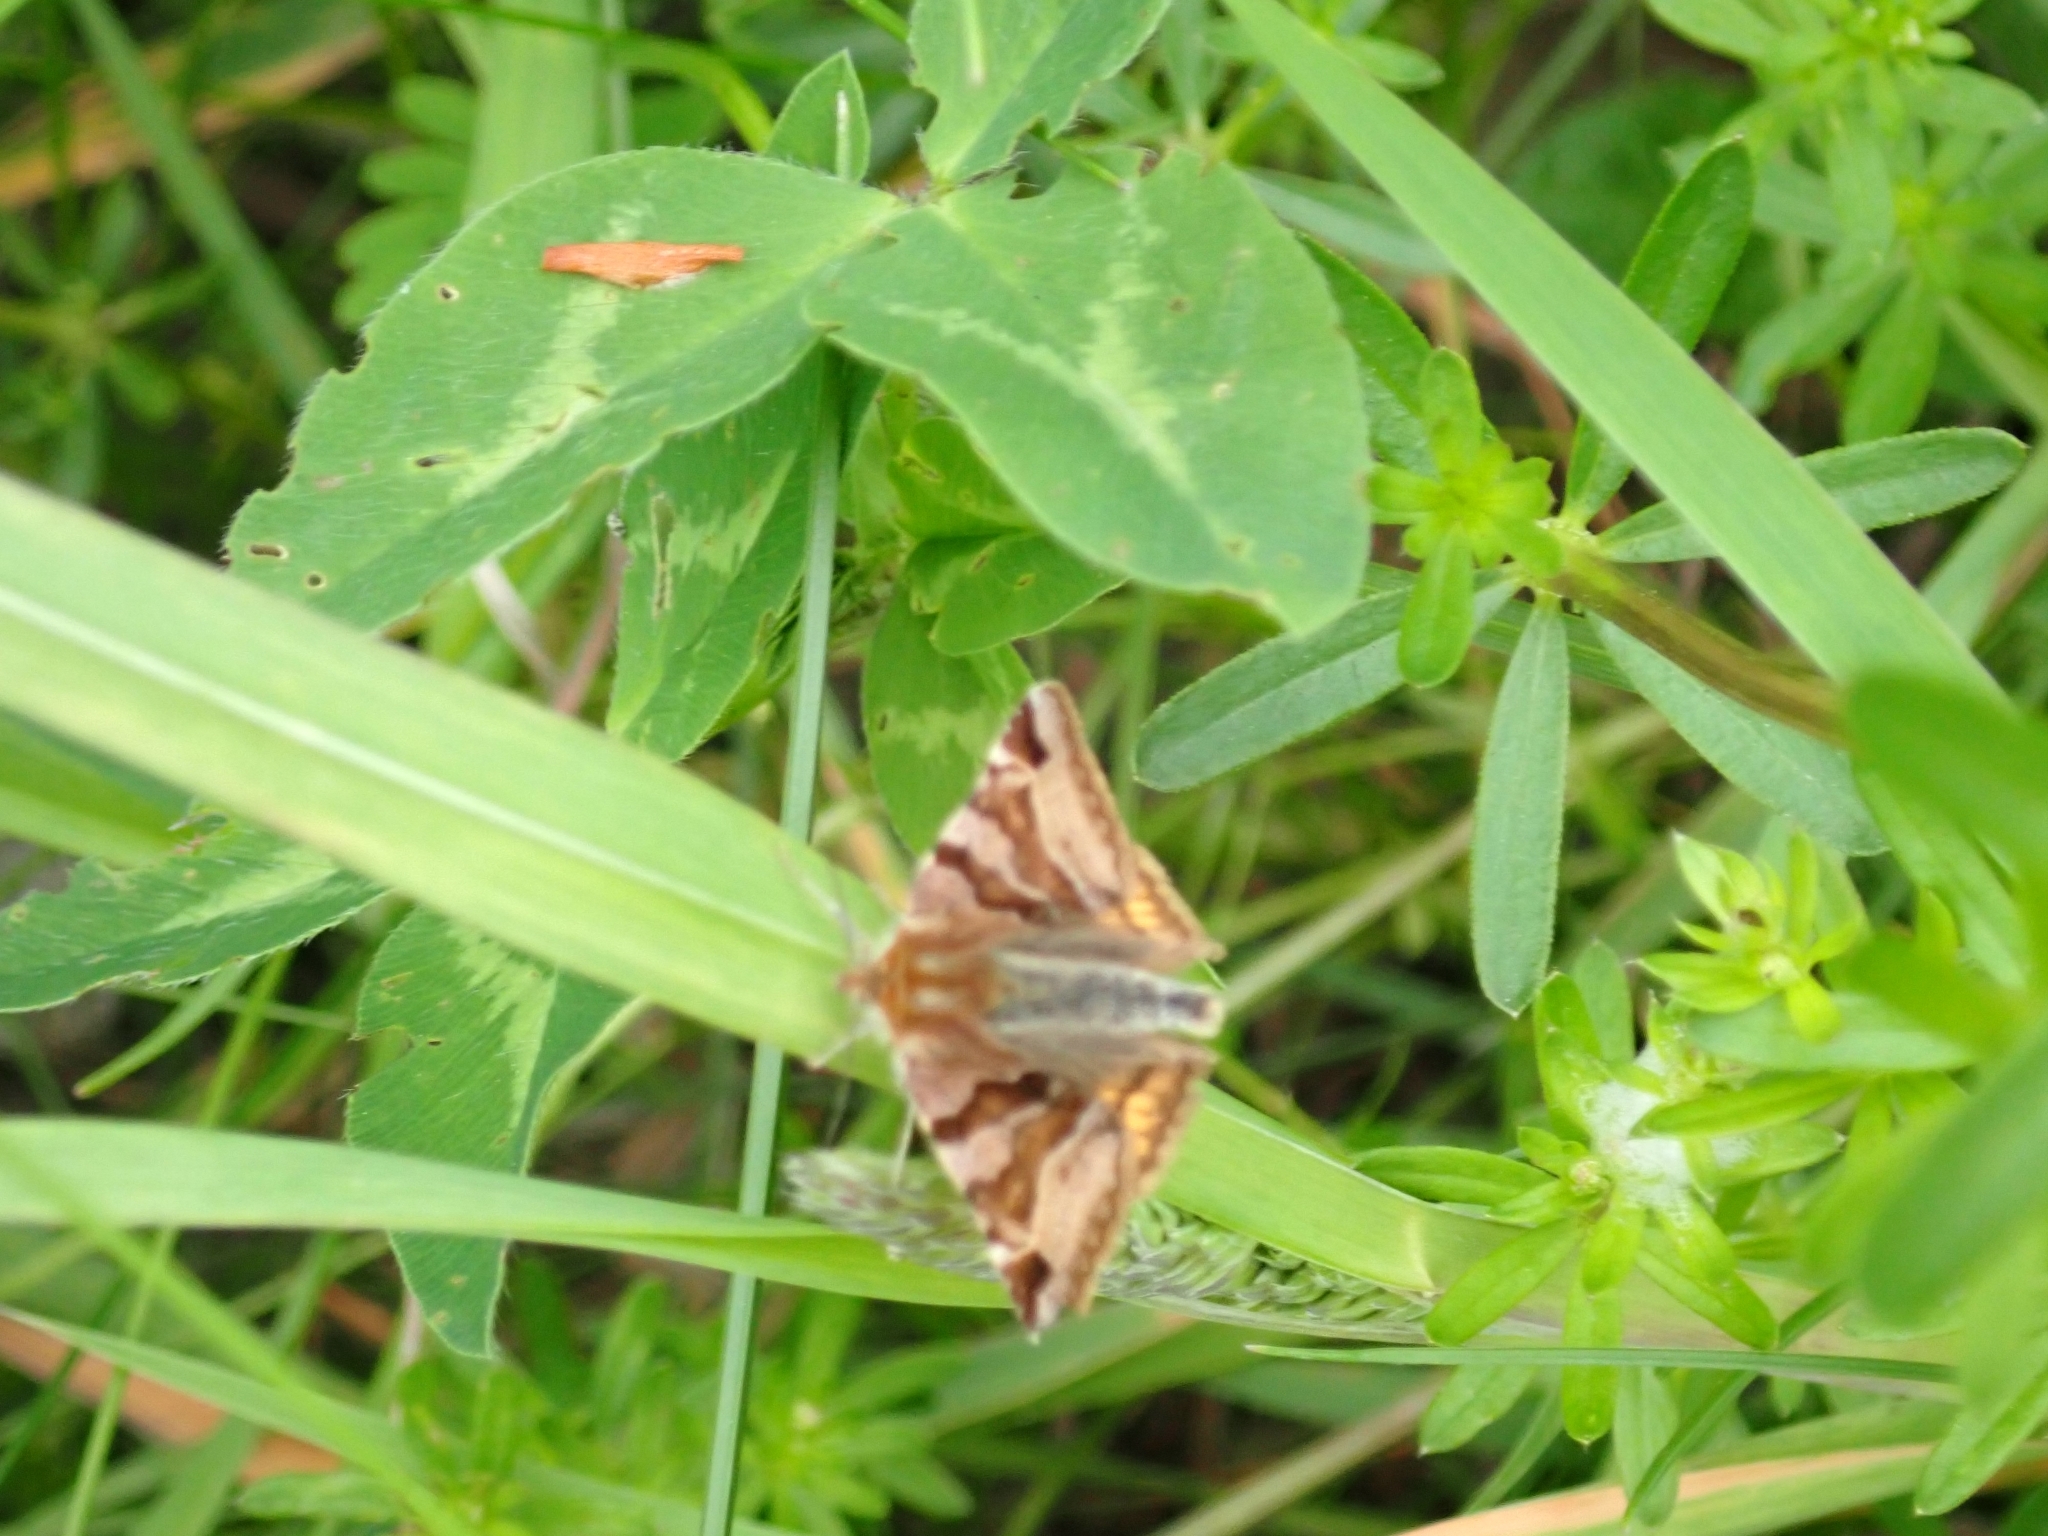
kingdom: Animalia
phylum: Arthropoda
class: Insecta
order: Lepidoptera
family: Erebidae
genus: Euclidia
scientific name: Euclidia glyphica
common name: Burnet companion
